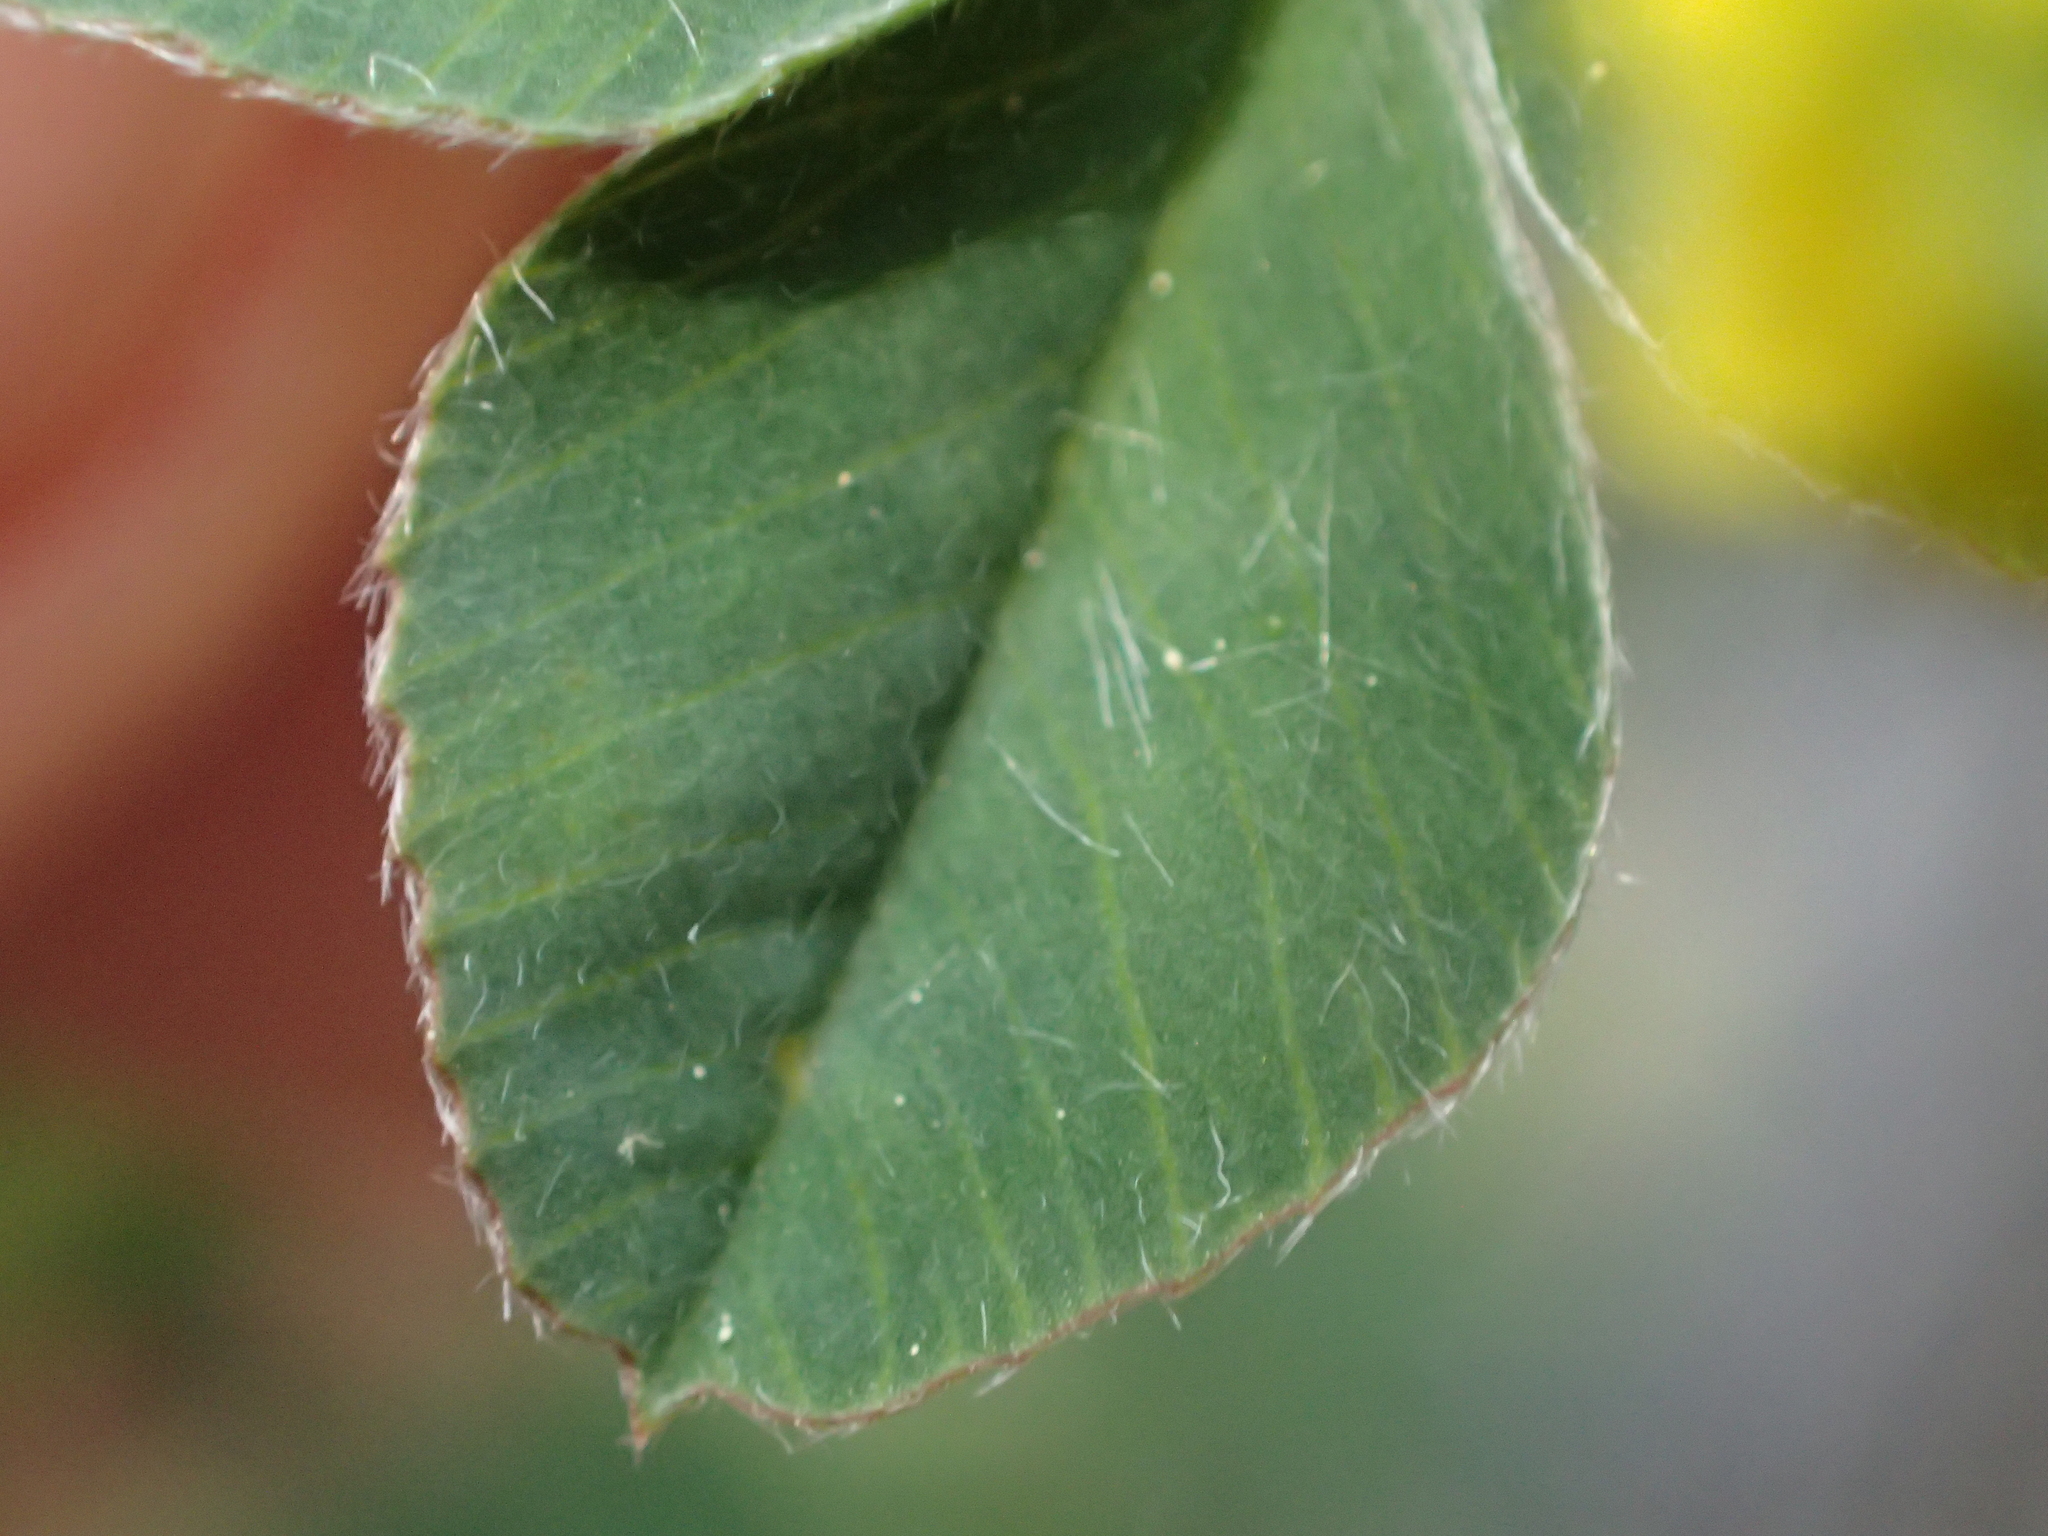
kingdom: Plantae
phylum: Tracheophyta
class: Magnoliopsida
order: Fabales
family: Fabaceae
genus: Medicago
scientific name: Medicago lupulina
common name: Black medick
